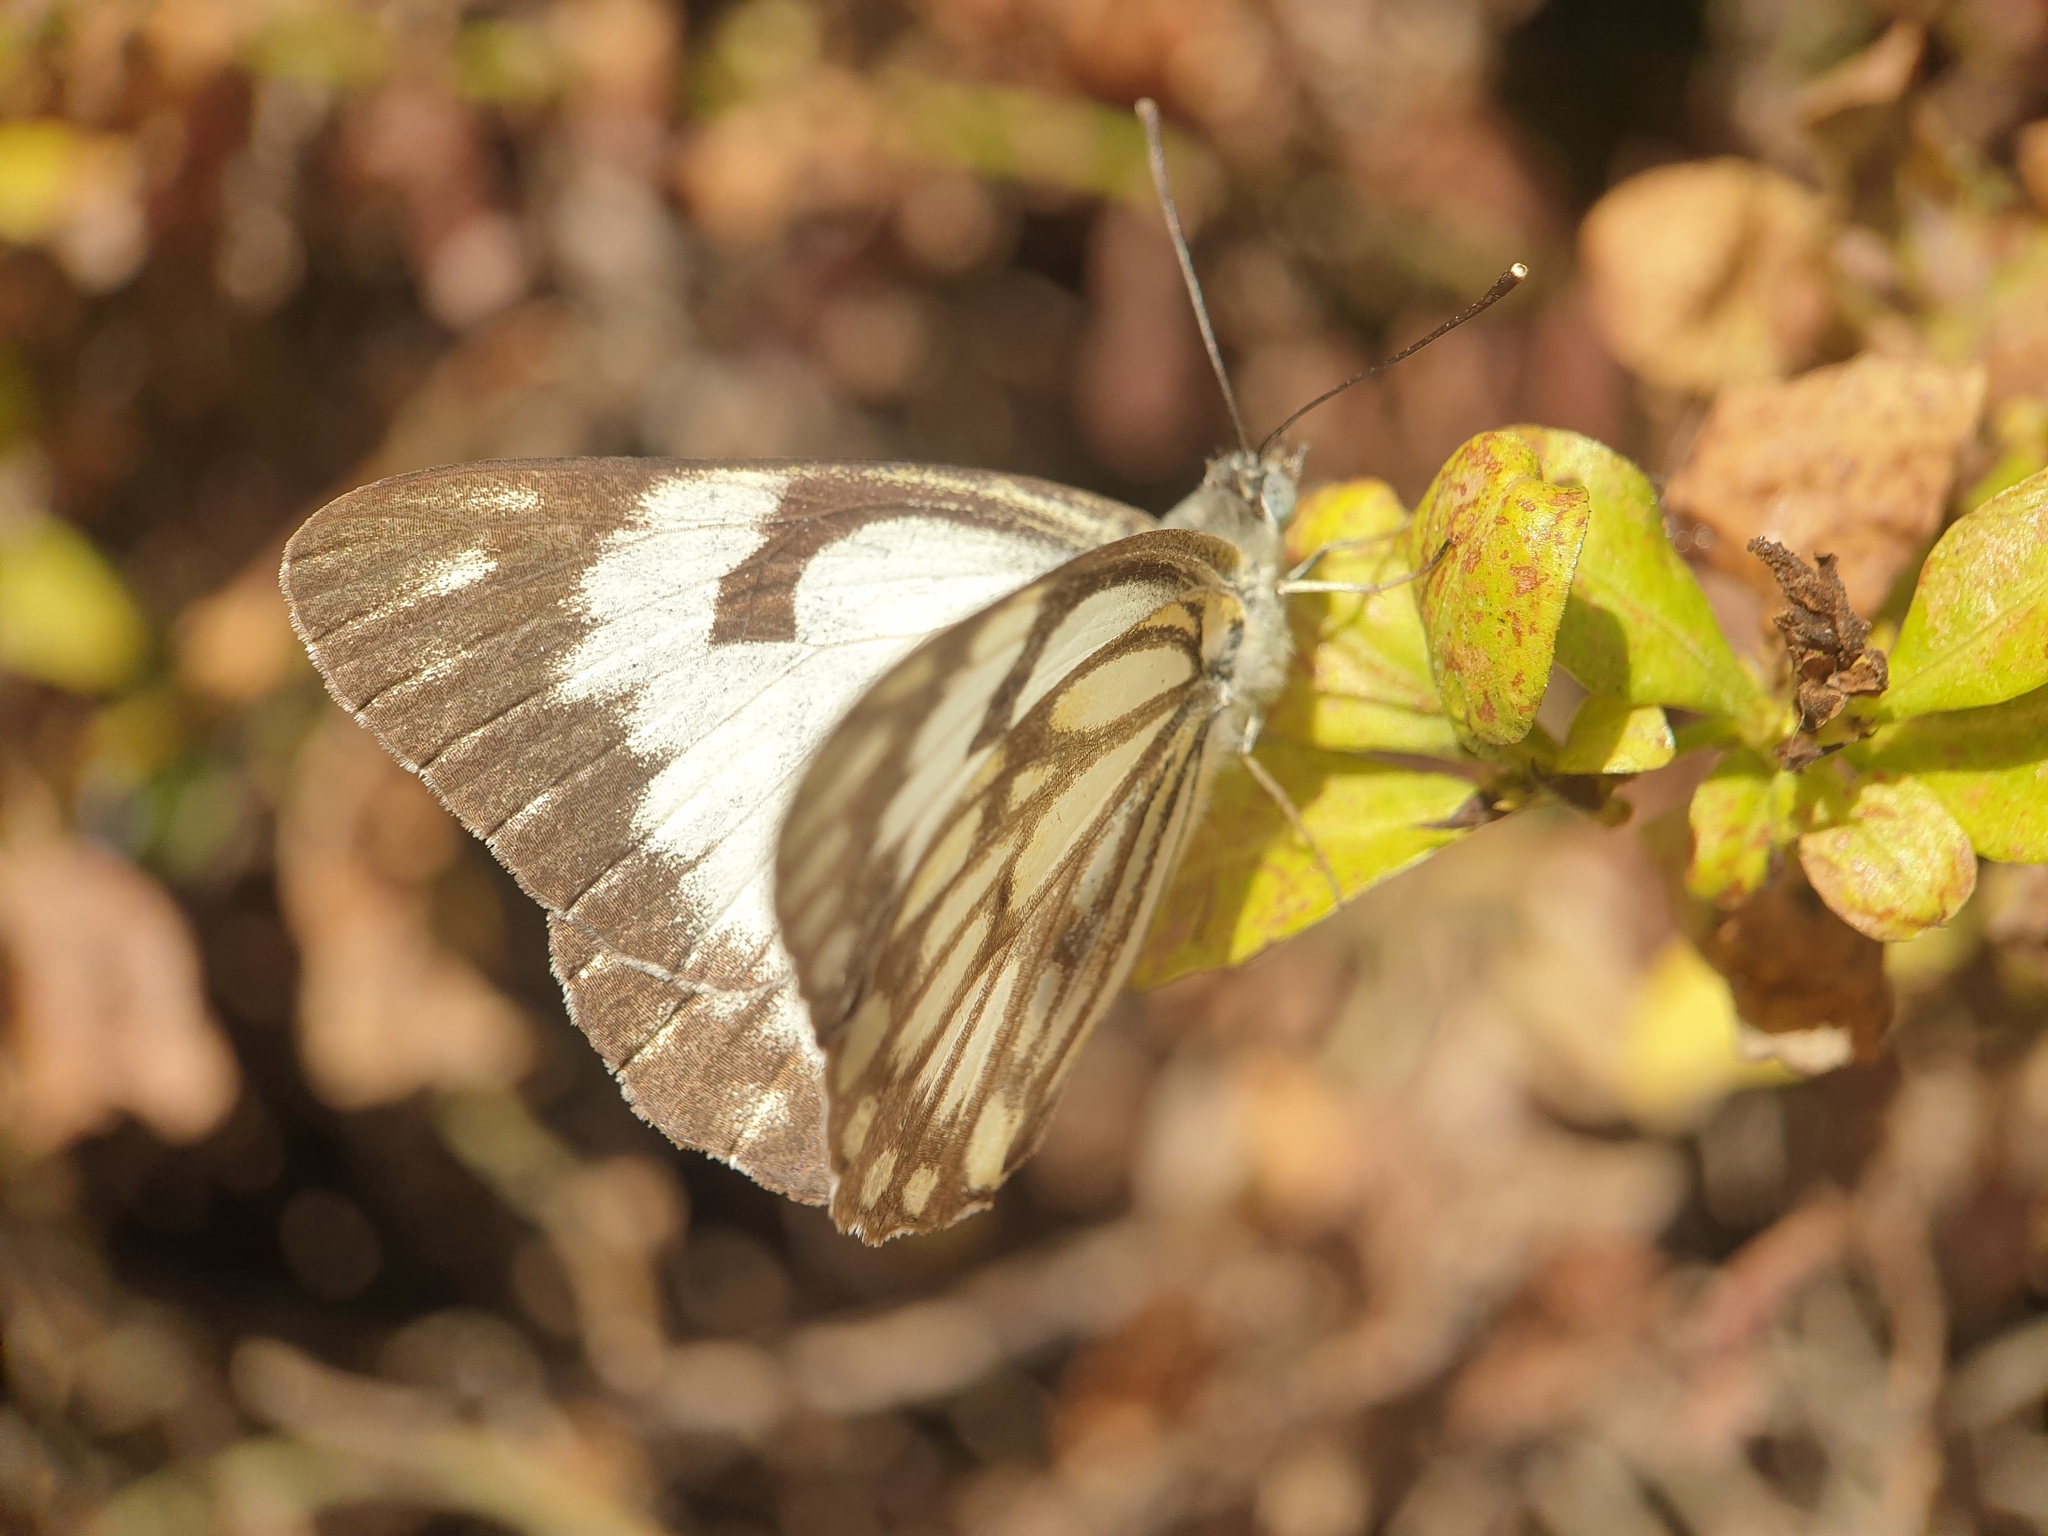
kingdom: Animalia
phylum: Arthropoda
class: Insecta
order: Lepidoptera
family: Pieridae
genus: Belenois
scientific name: Belenois aurota
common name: Brown-veined white
